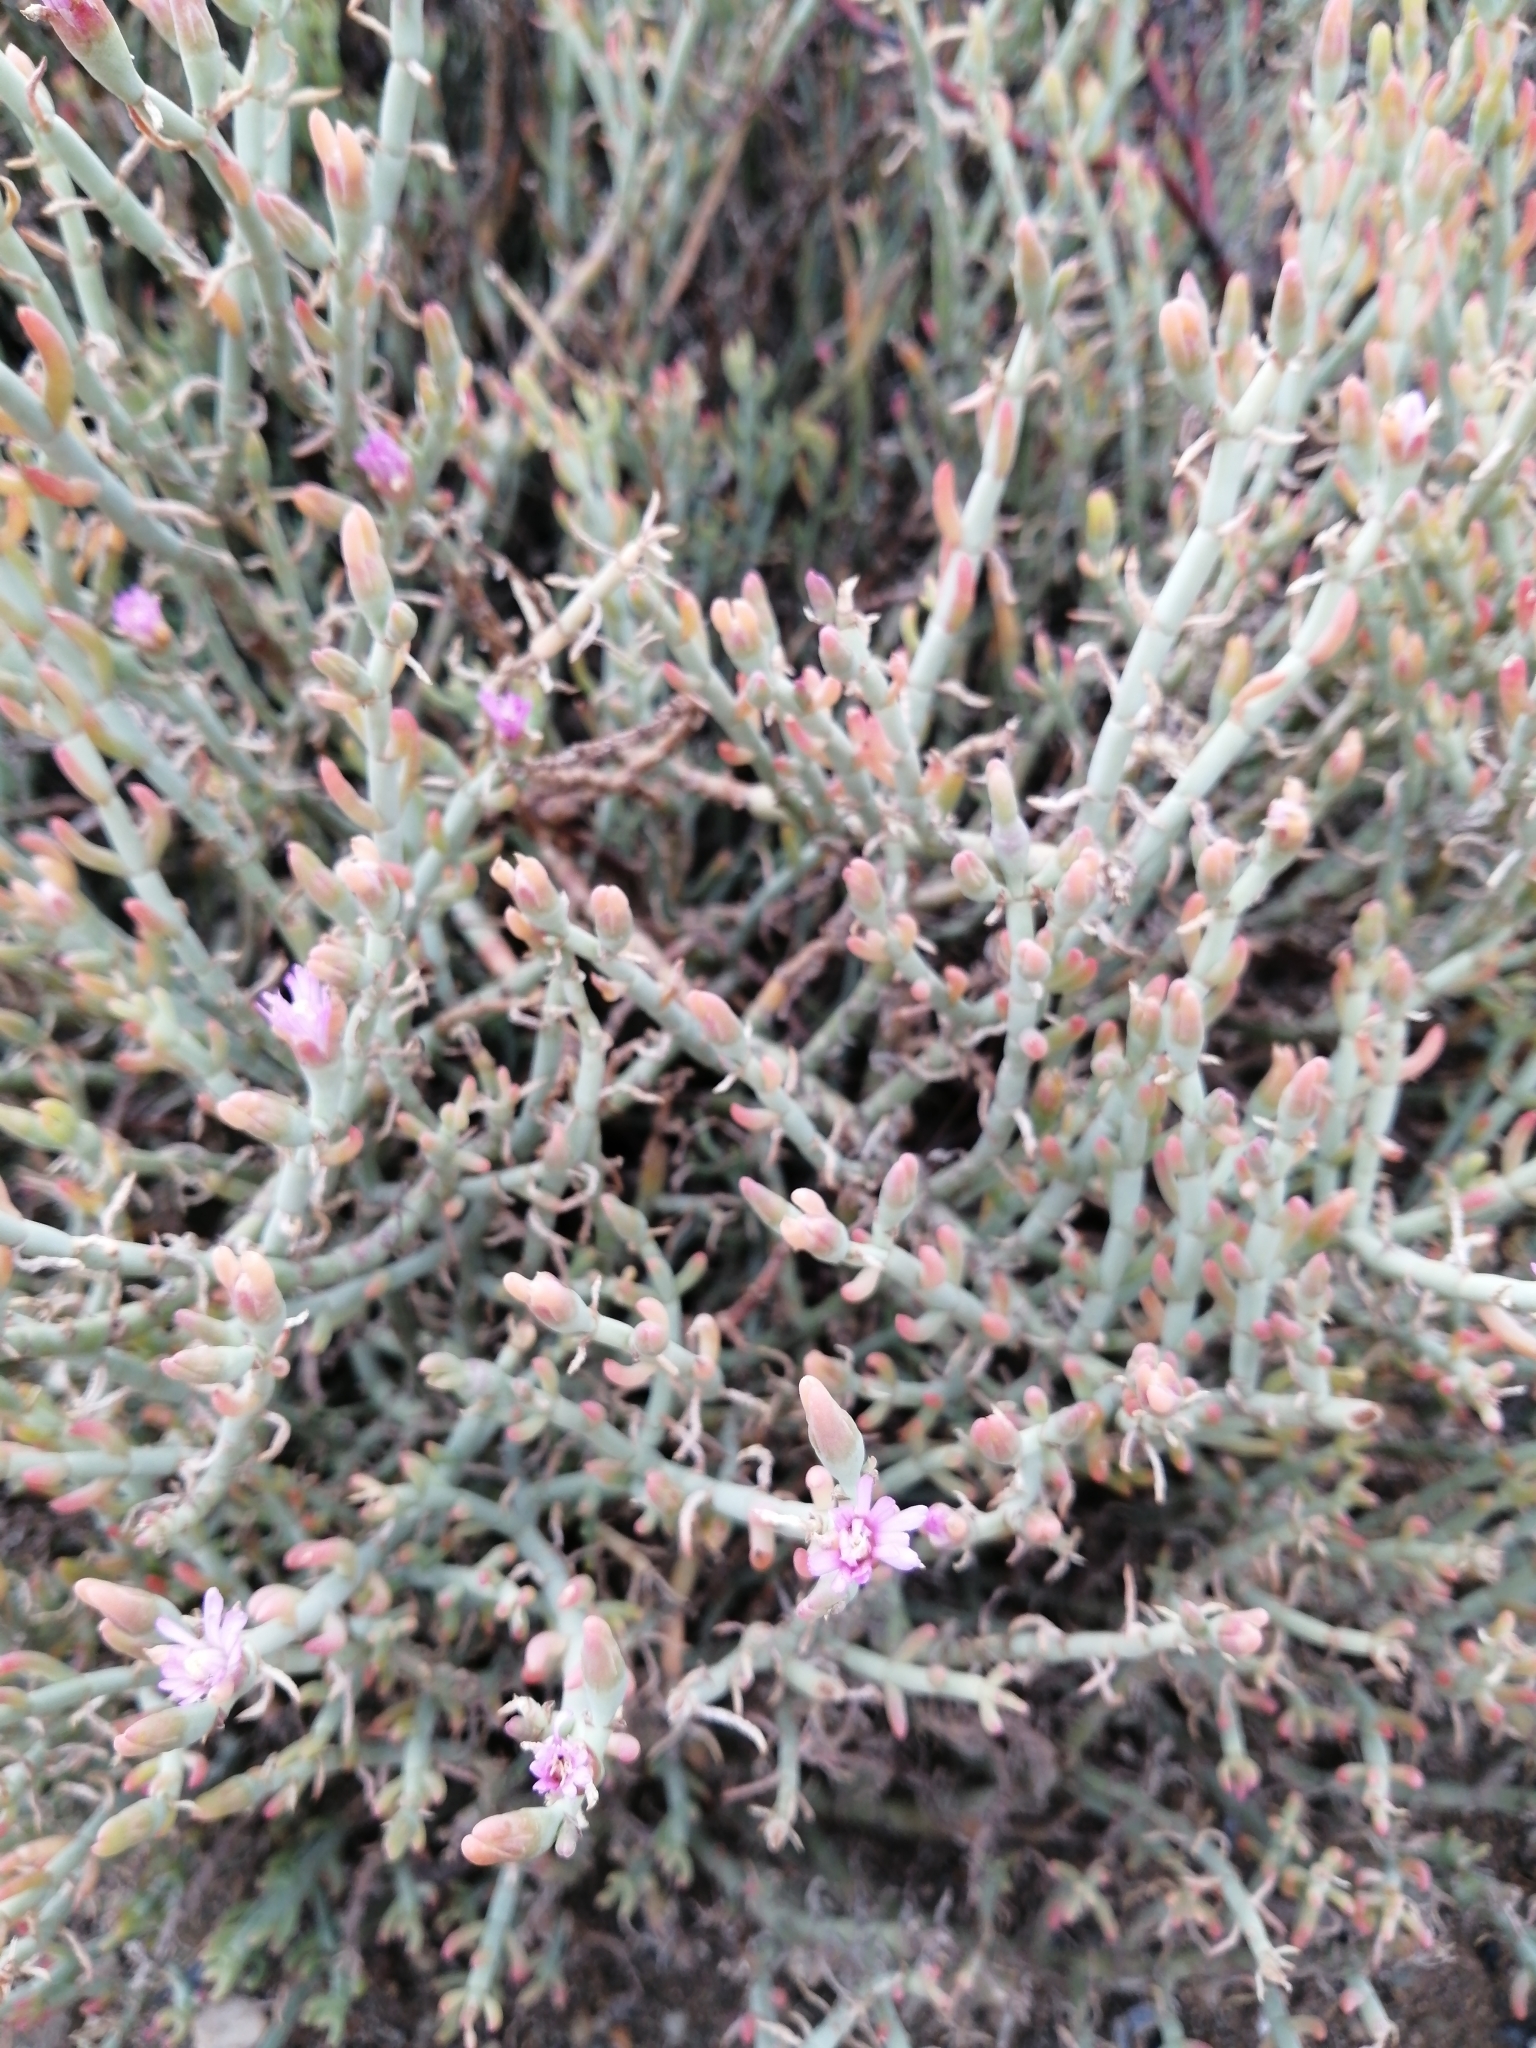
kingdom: Plantae
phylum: Tracheophyta
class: Magnoliopsida
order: Caryophyllales
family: Aizoaceae
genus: Mesembryanthemum
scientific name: Mesembryanthemum junceum
